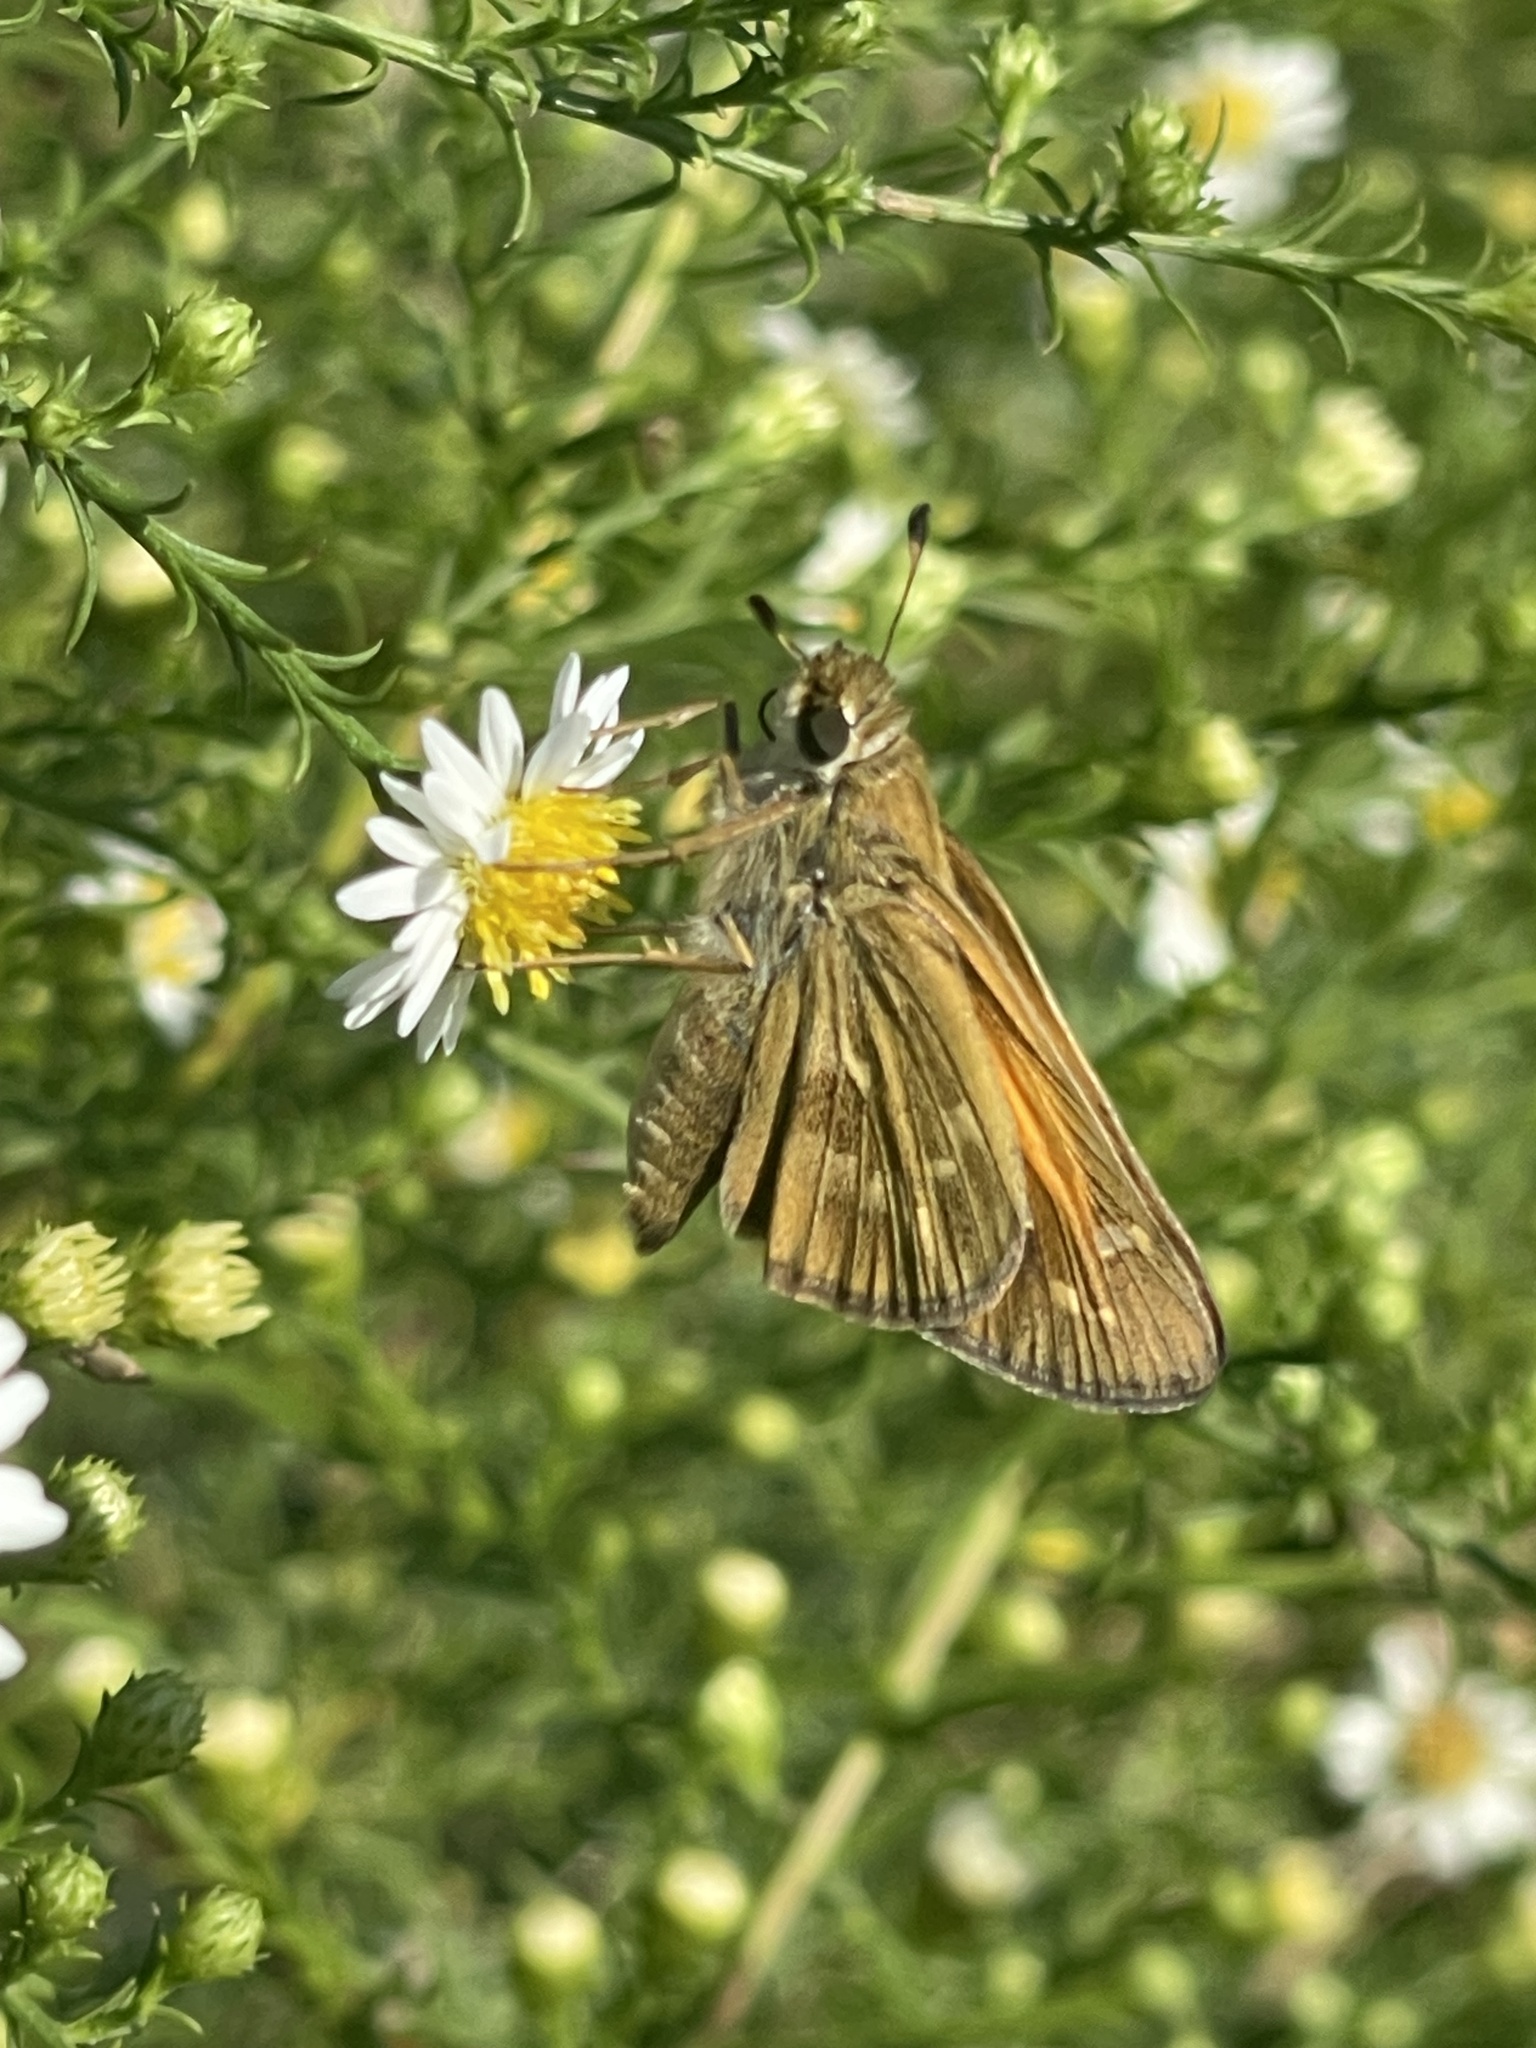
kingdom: Animalia
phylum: Arthropoda
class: Insecta
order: Lepidoptera
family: Hesperiidae
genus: Atalopedes
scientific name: Atalopedes
